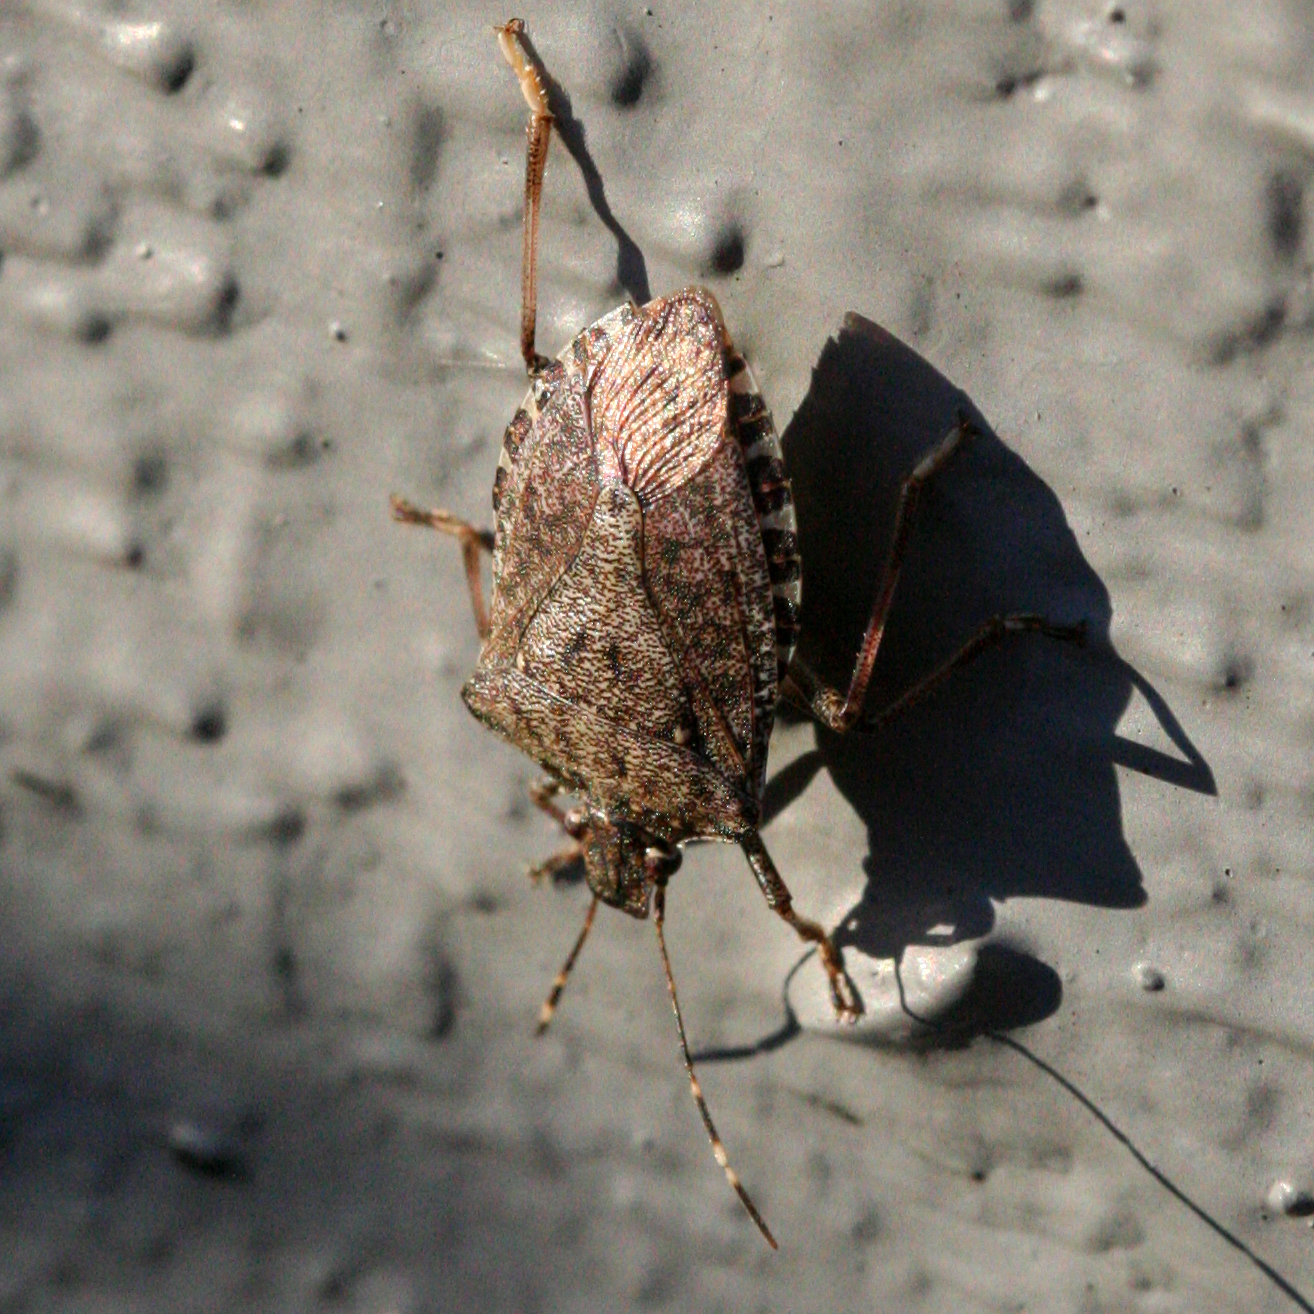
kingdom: Animalia
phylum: Arthropoda
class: Insecta
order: Hemiptera
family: Pentatomidae
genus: Halyomorpha
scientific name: Halyomorpha halys
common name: Brown marmorated stink bug
